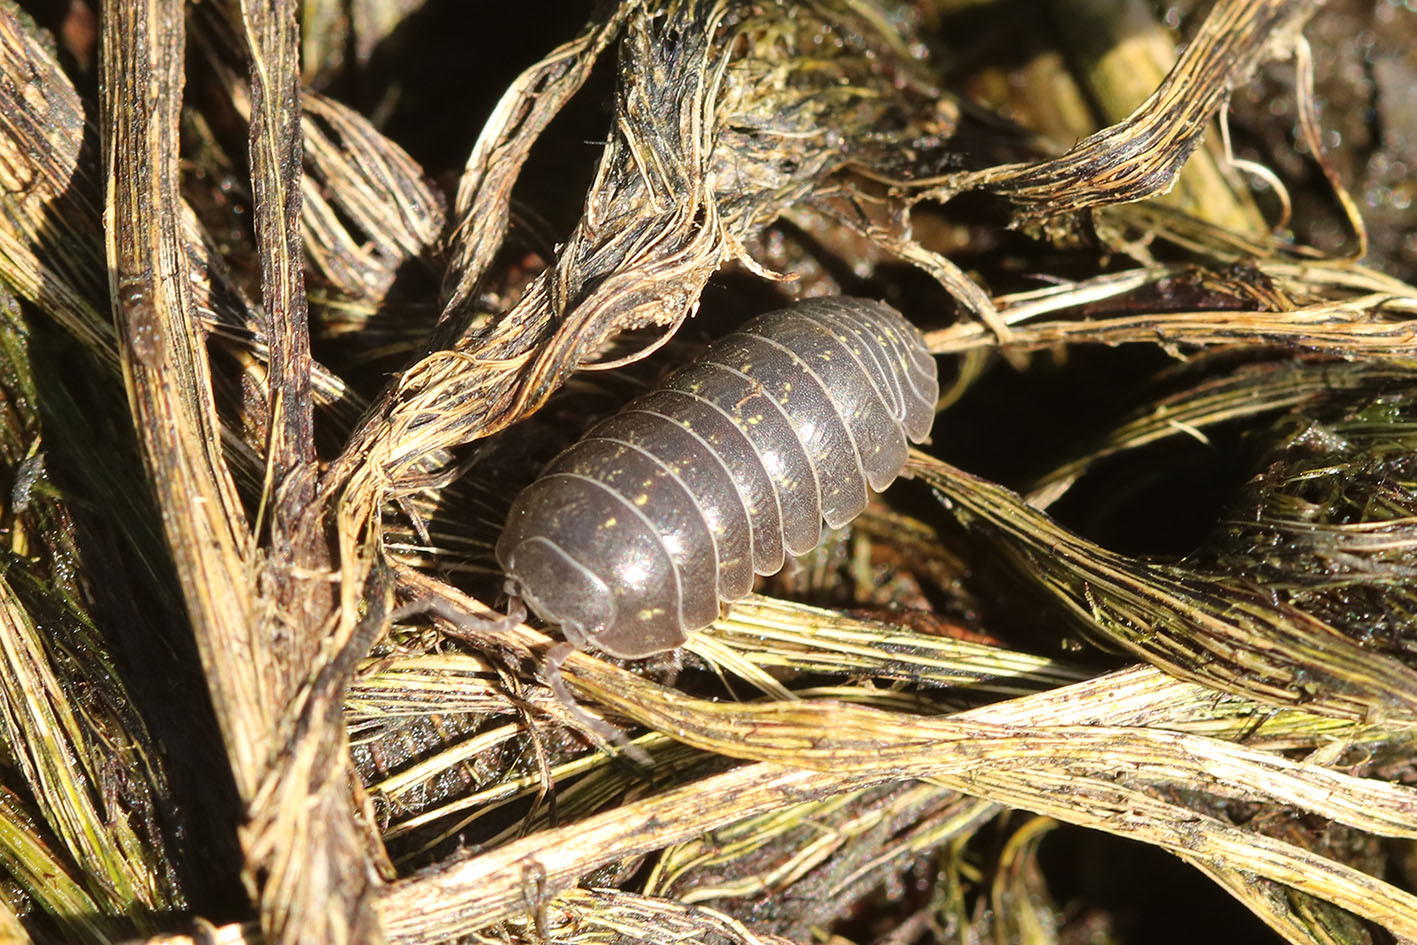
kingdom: Animalia
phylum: Arthropoda
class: Malacostraca
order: Isopoda
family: Armadillidiidae
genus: Armadillidium
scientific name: Armadillidium vulgare
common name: Common pill woodlouse
